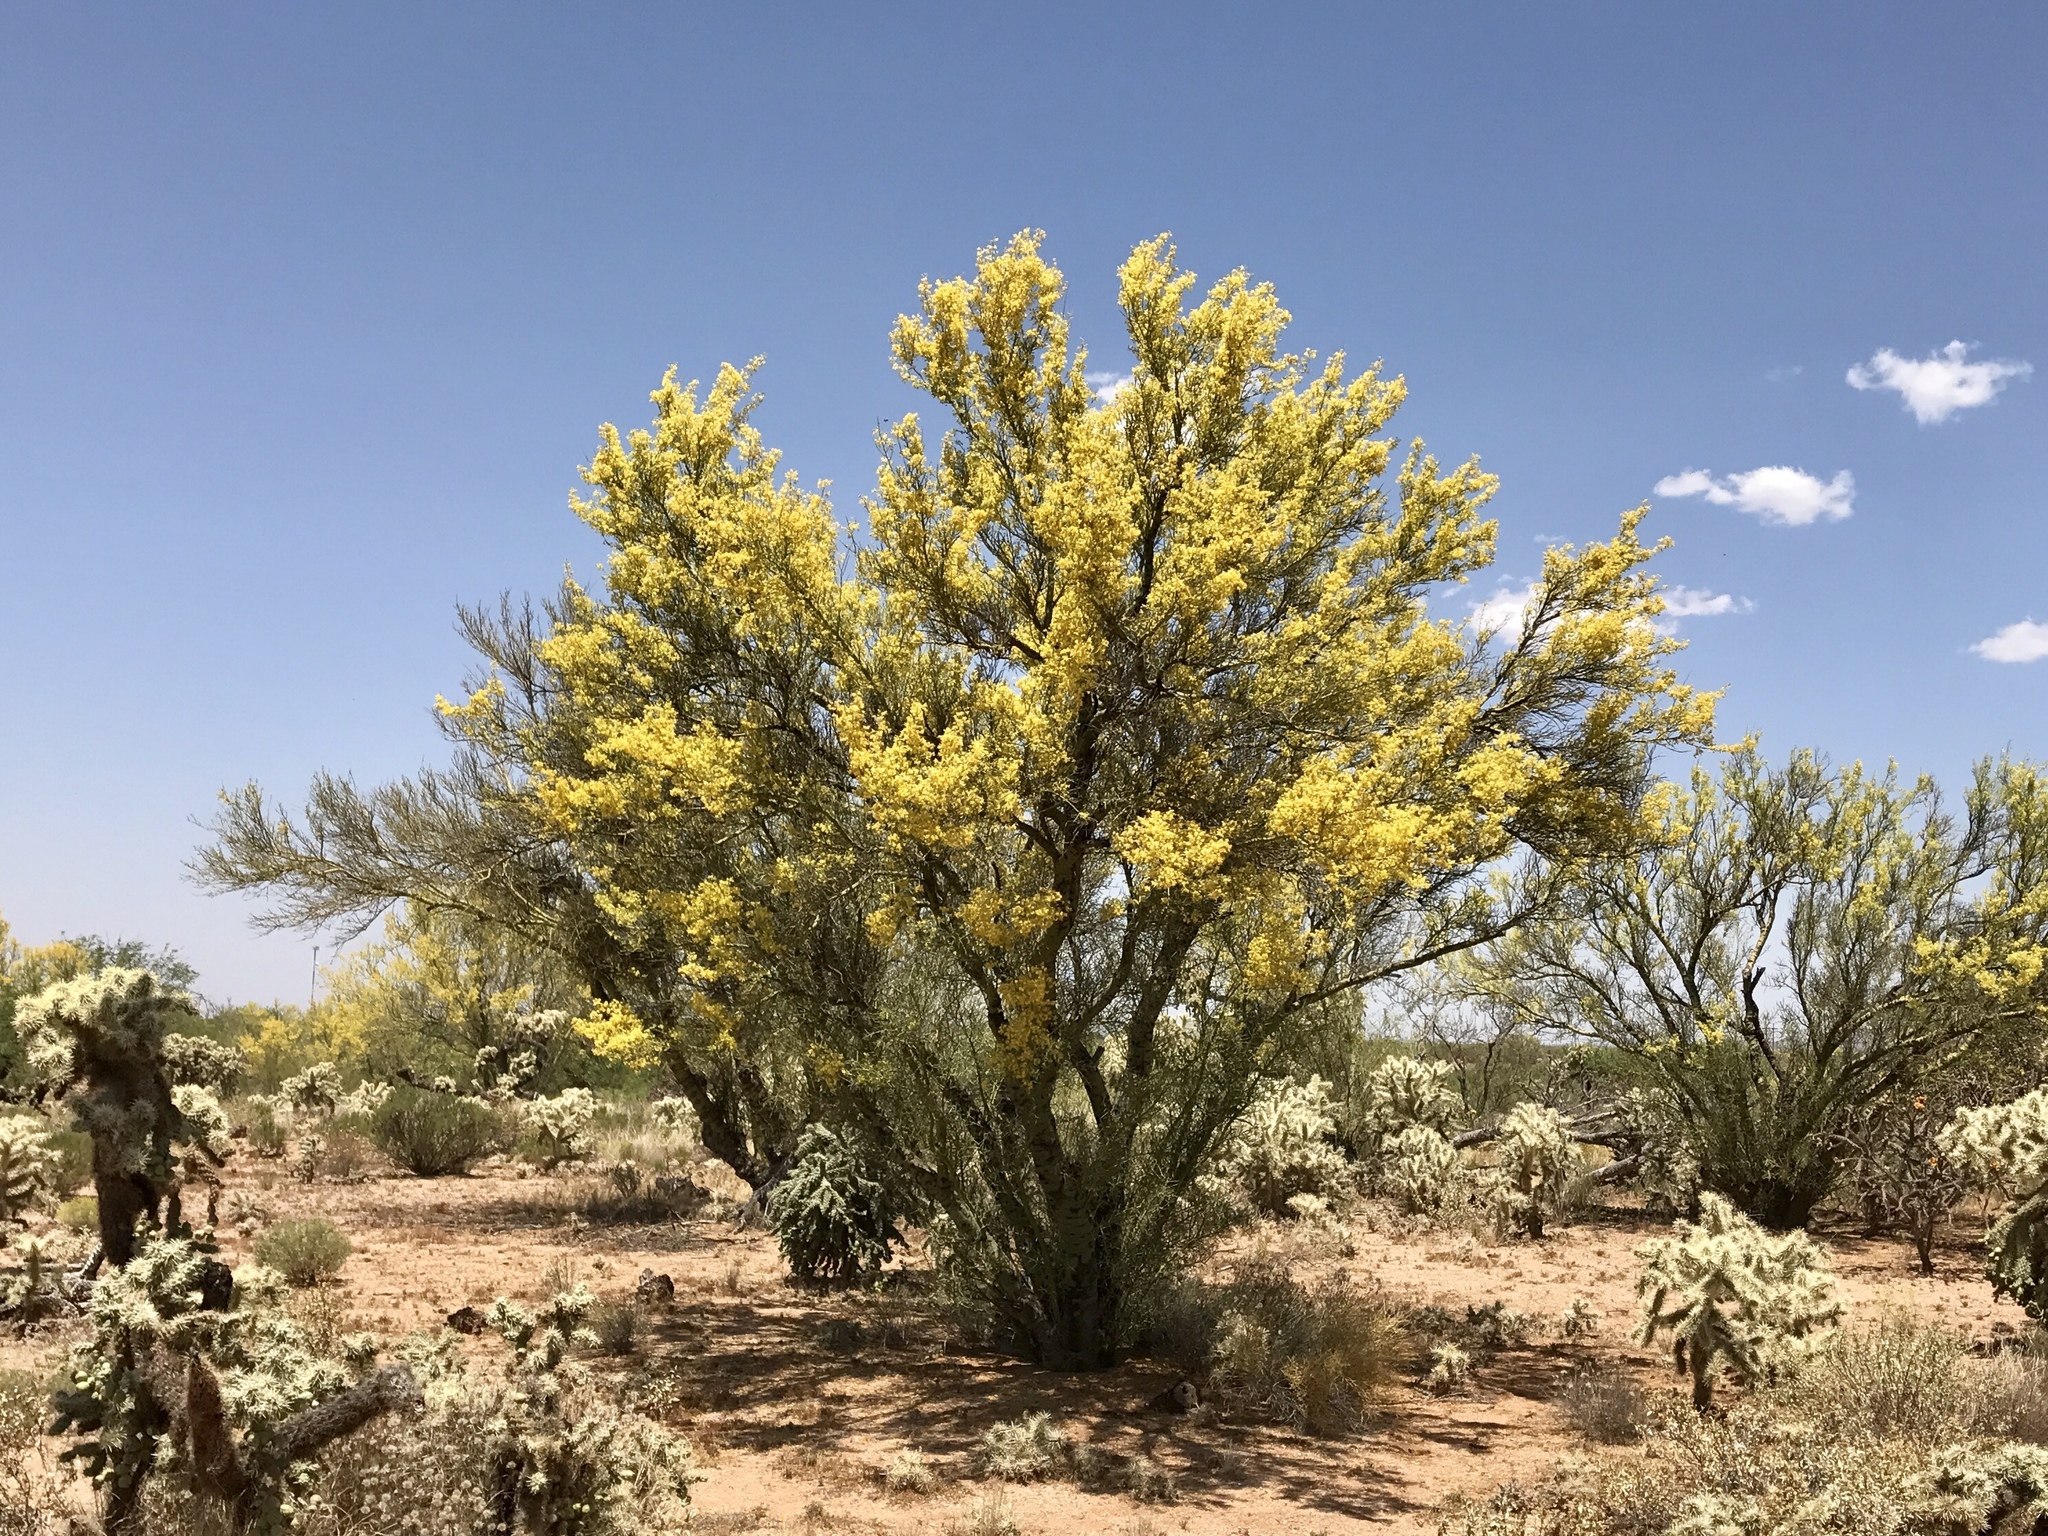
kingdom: Plantae
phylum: Tracheophyta
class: Magnoliopsida
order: Fabales
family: Fabaceae
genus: Parkinsonia
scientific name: Parkinsonia microphylla
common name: Yellow paloverde
